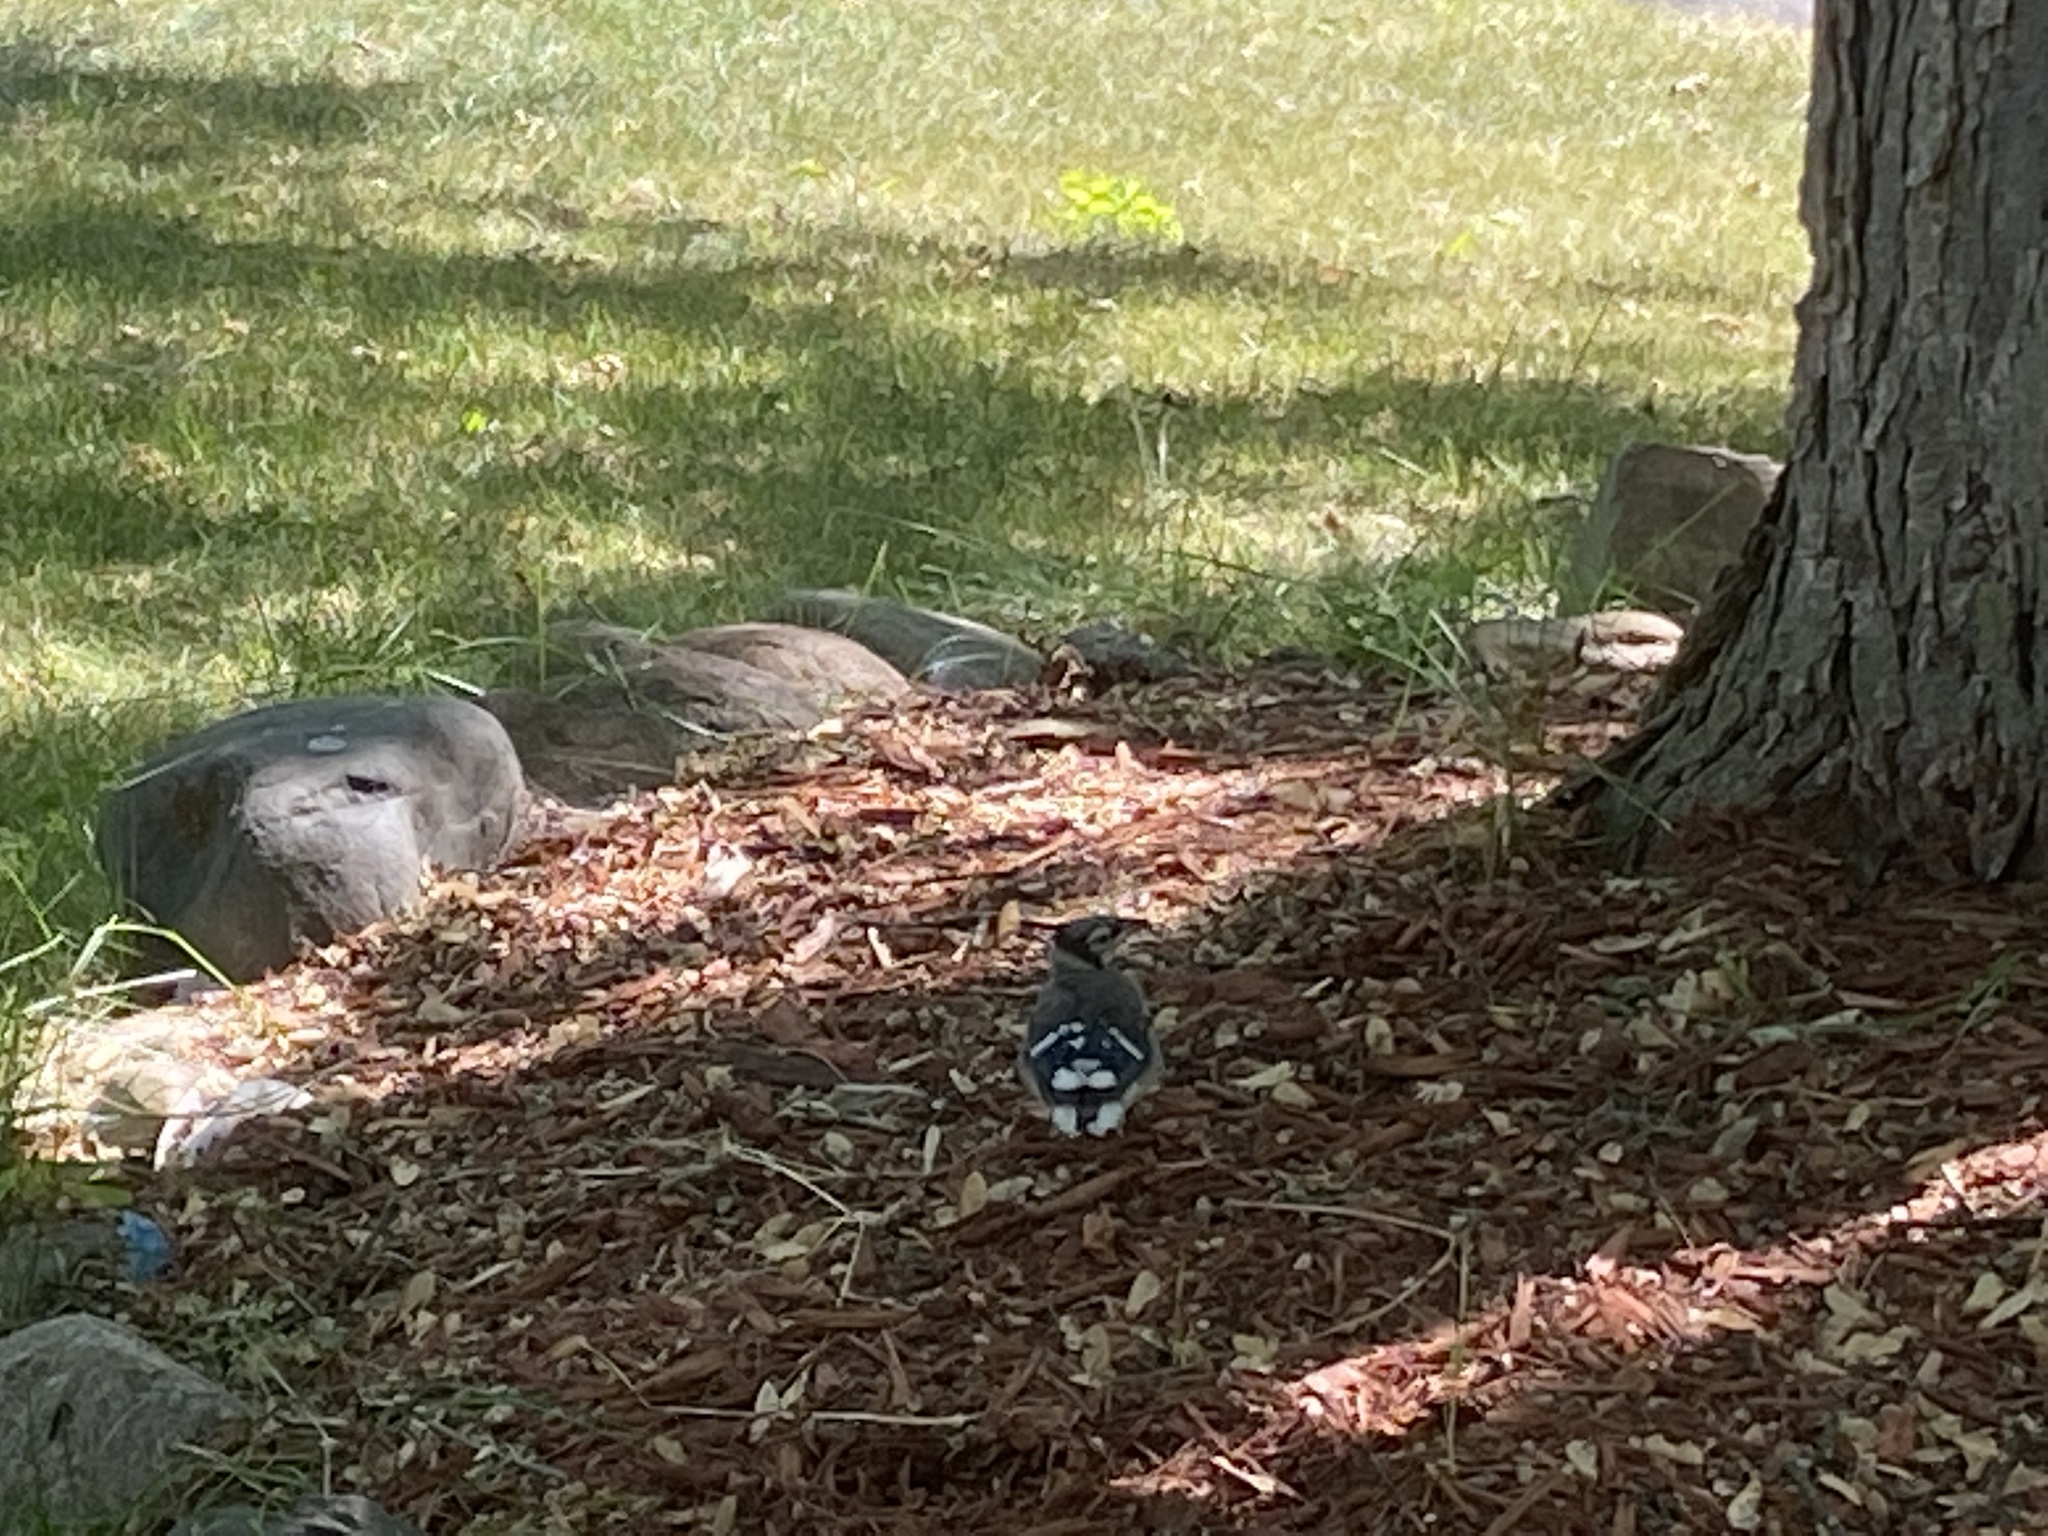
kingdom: Animalia
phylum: Chordata
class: Aves
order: Passeriformes
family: Corvidae
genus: Cyanocitta
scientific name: Cyanocitta cristata
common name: Blue jay
